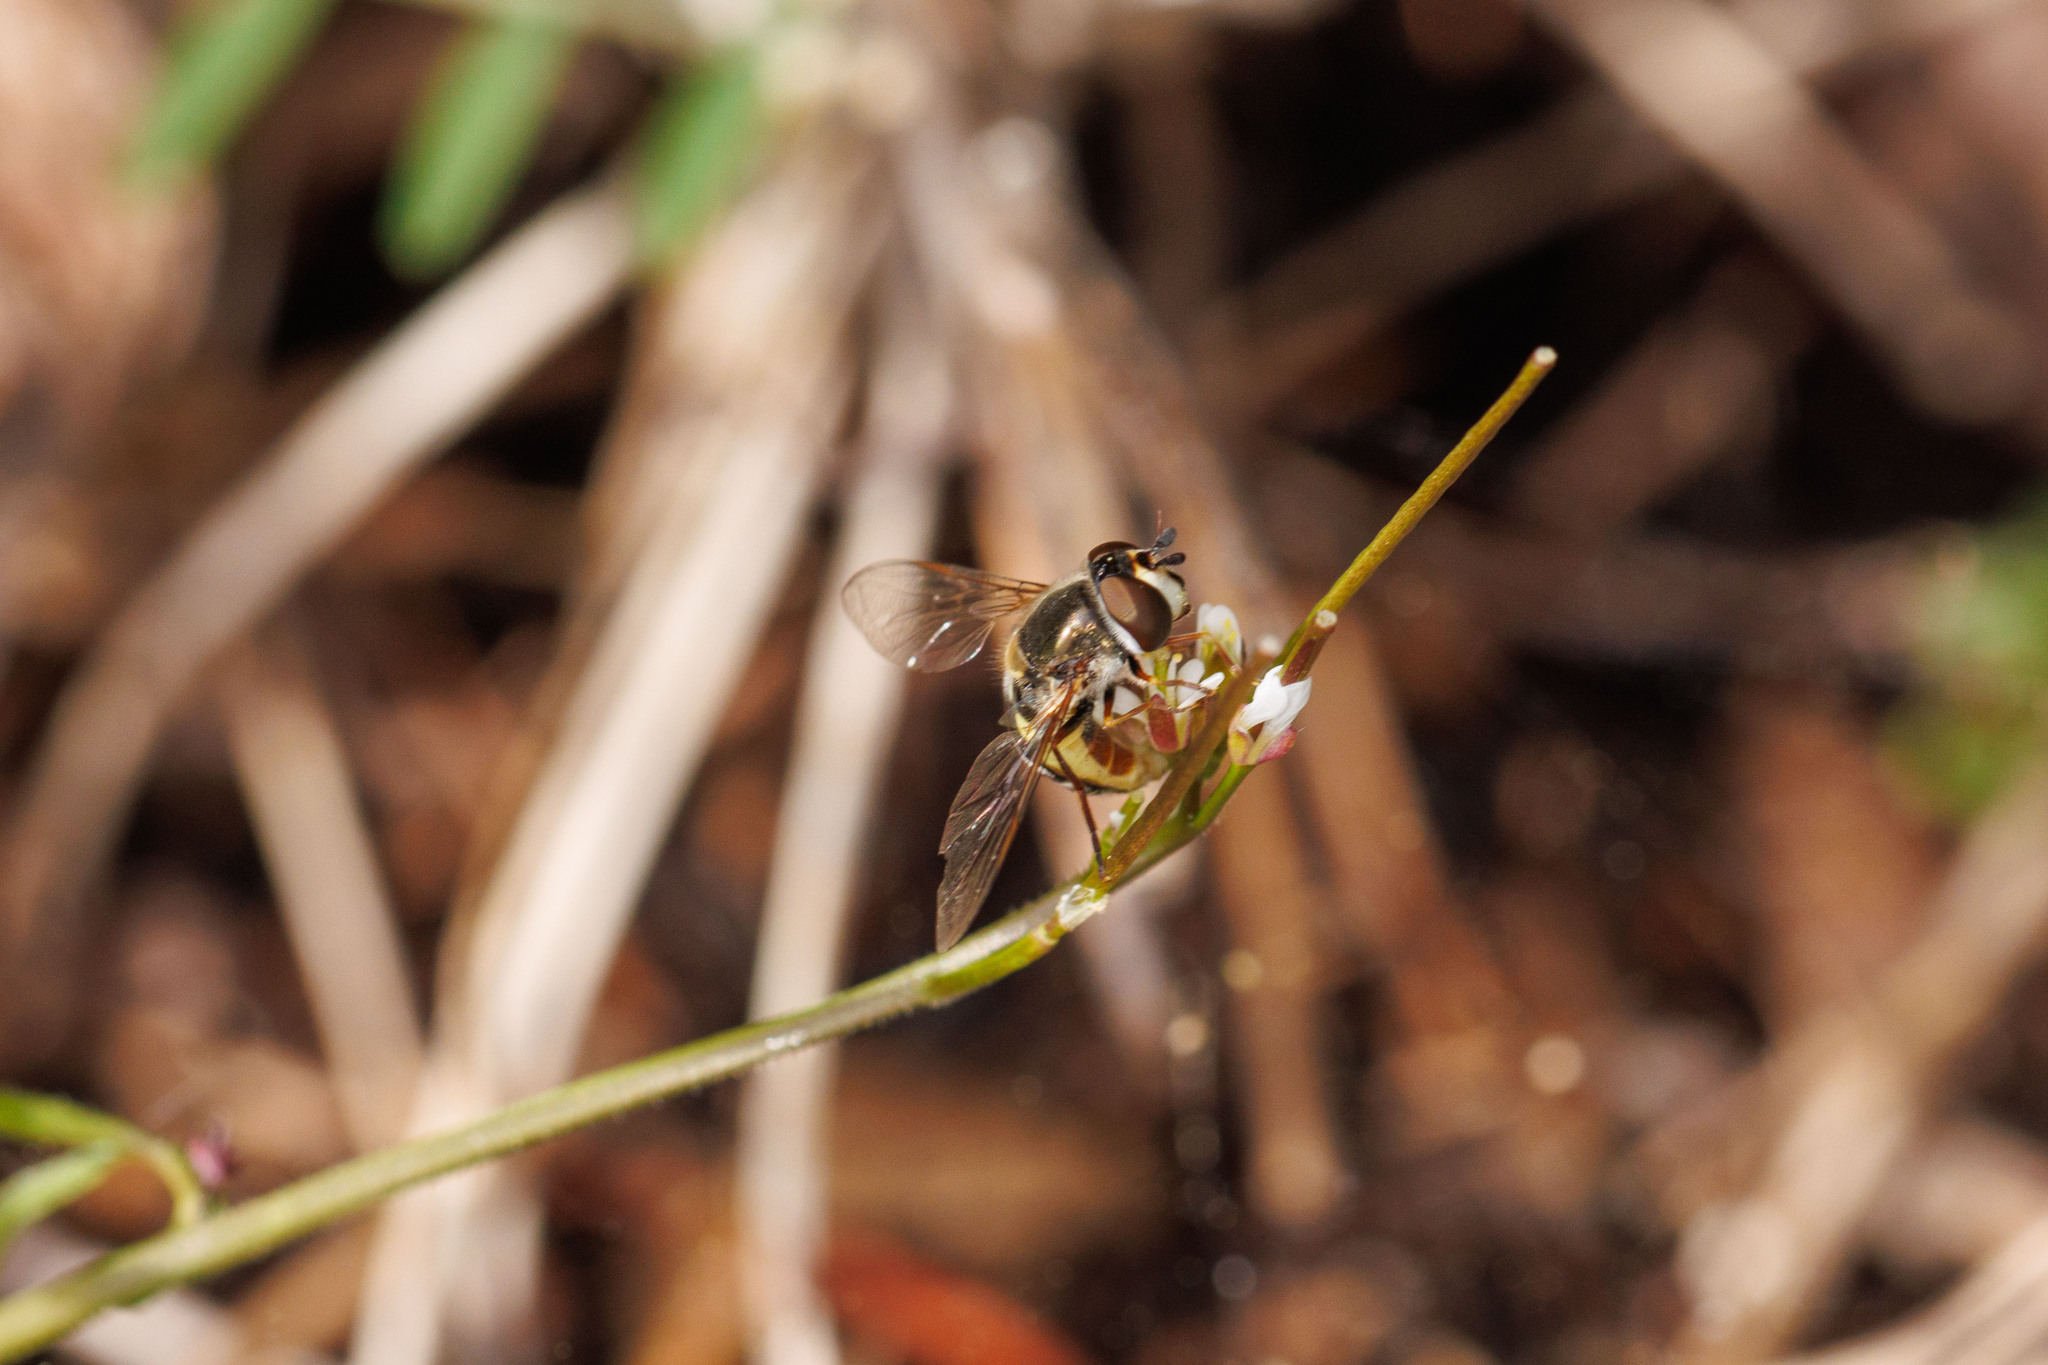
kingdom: Animalia
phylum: Arthropoda
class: Insecta
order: Diptera
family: Syrphidae
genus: Eupeodes
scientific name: Eupeodes volucris
